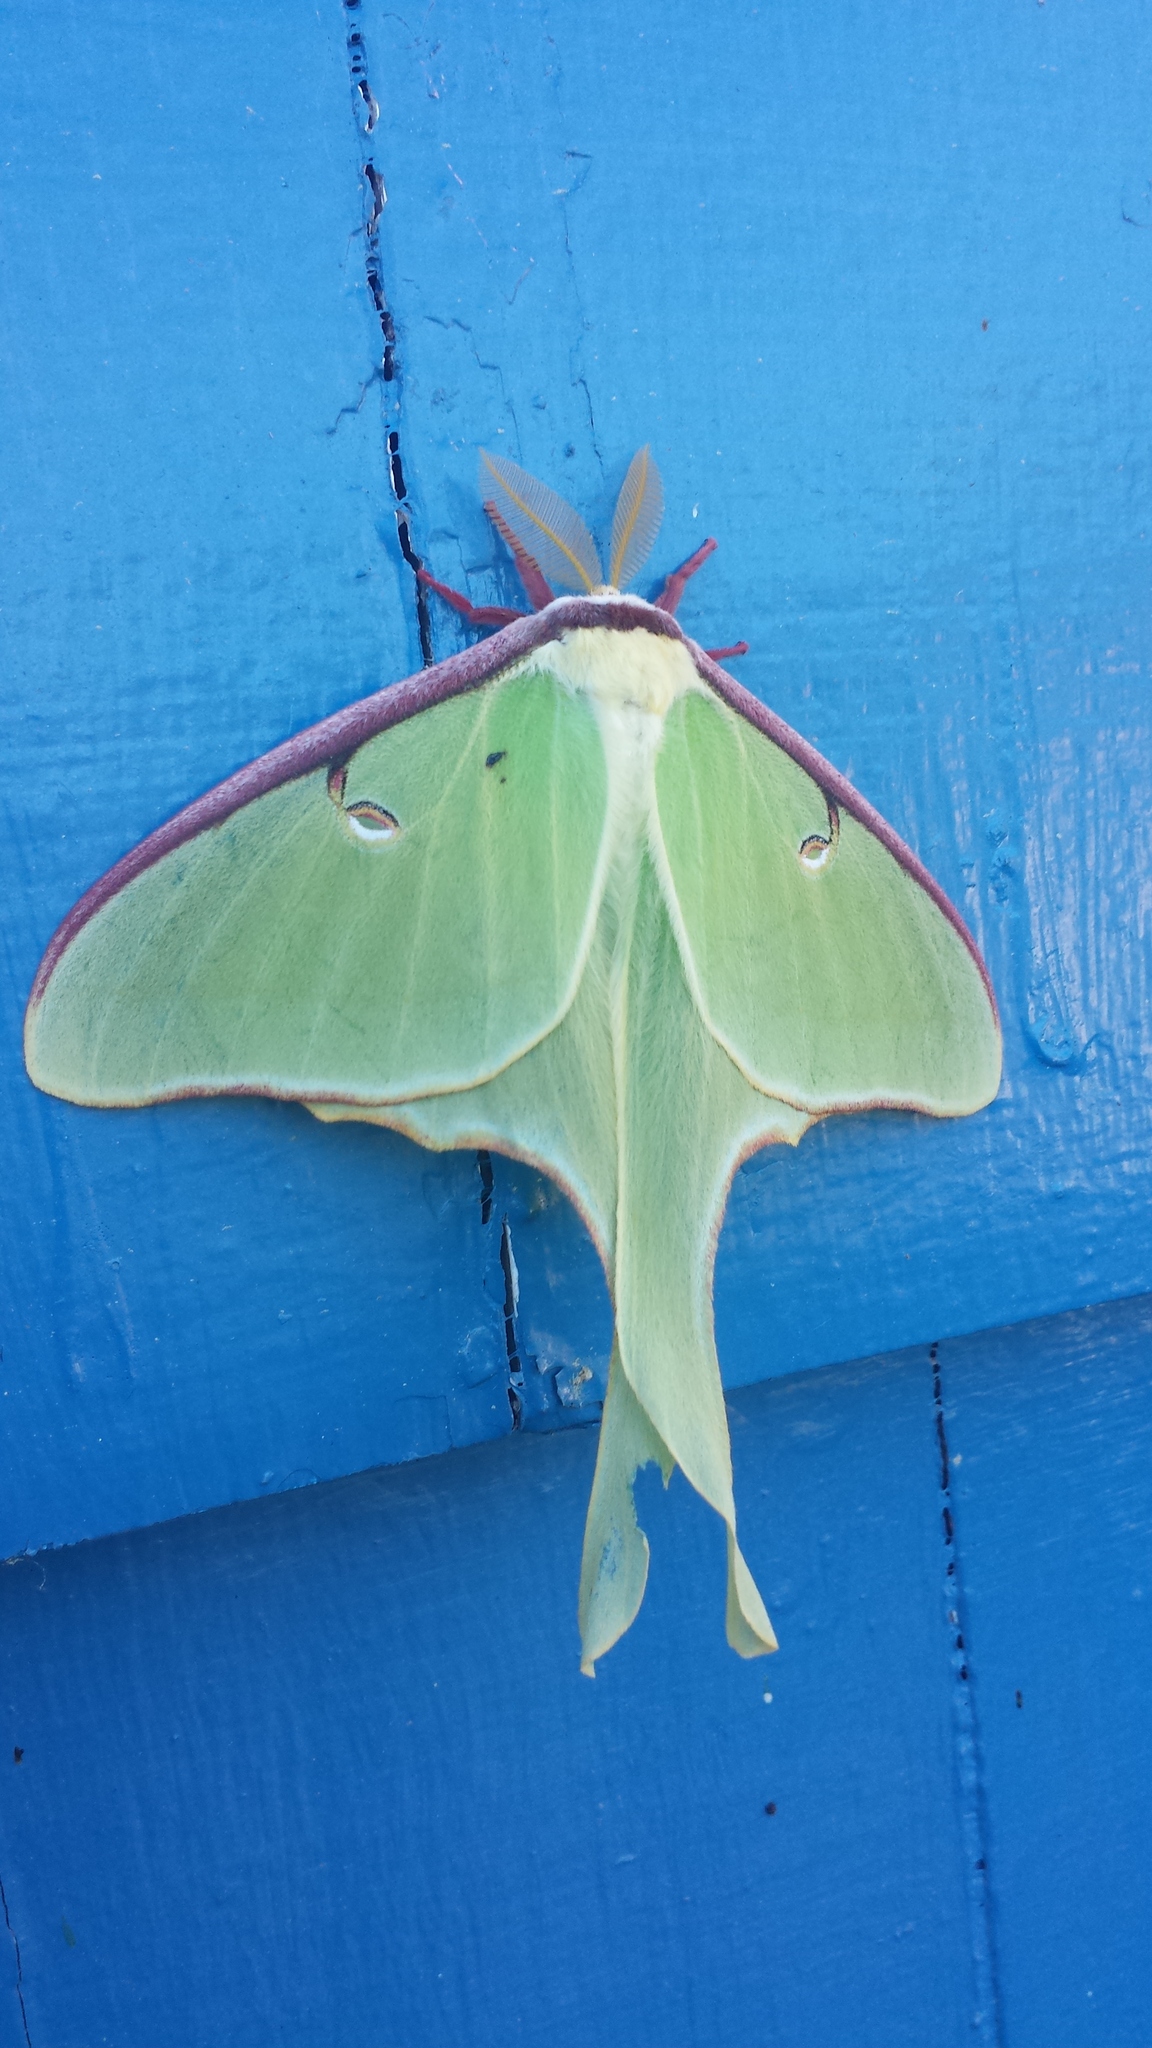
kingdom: Animalia
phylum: Arthropoda
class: Insecta
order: Lepidoptera
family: Saturniidae
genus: Actias
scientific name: Actias luna
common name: Luna moth
